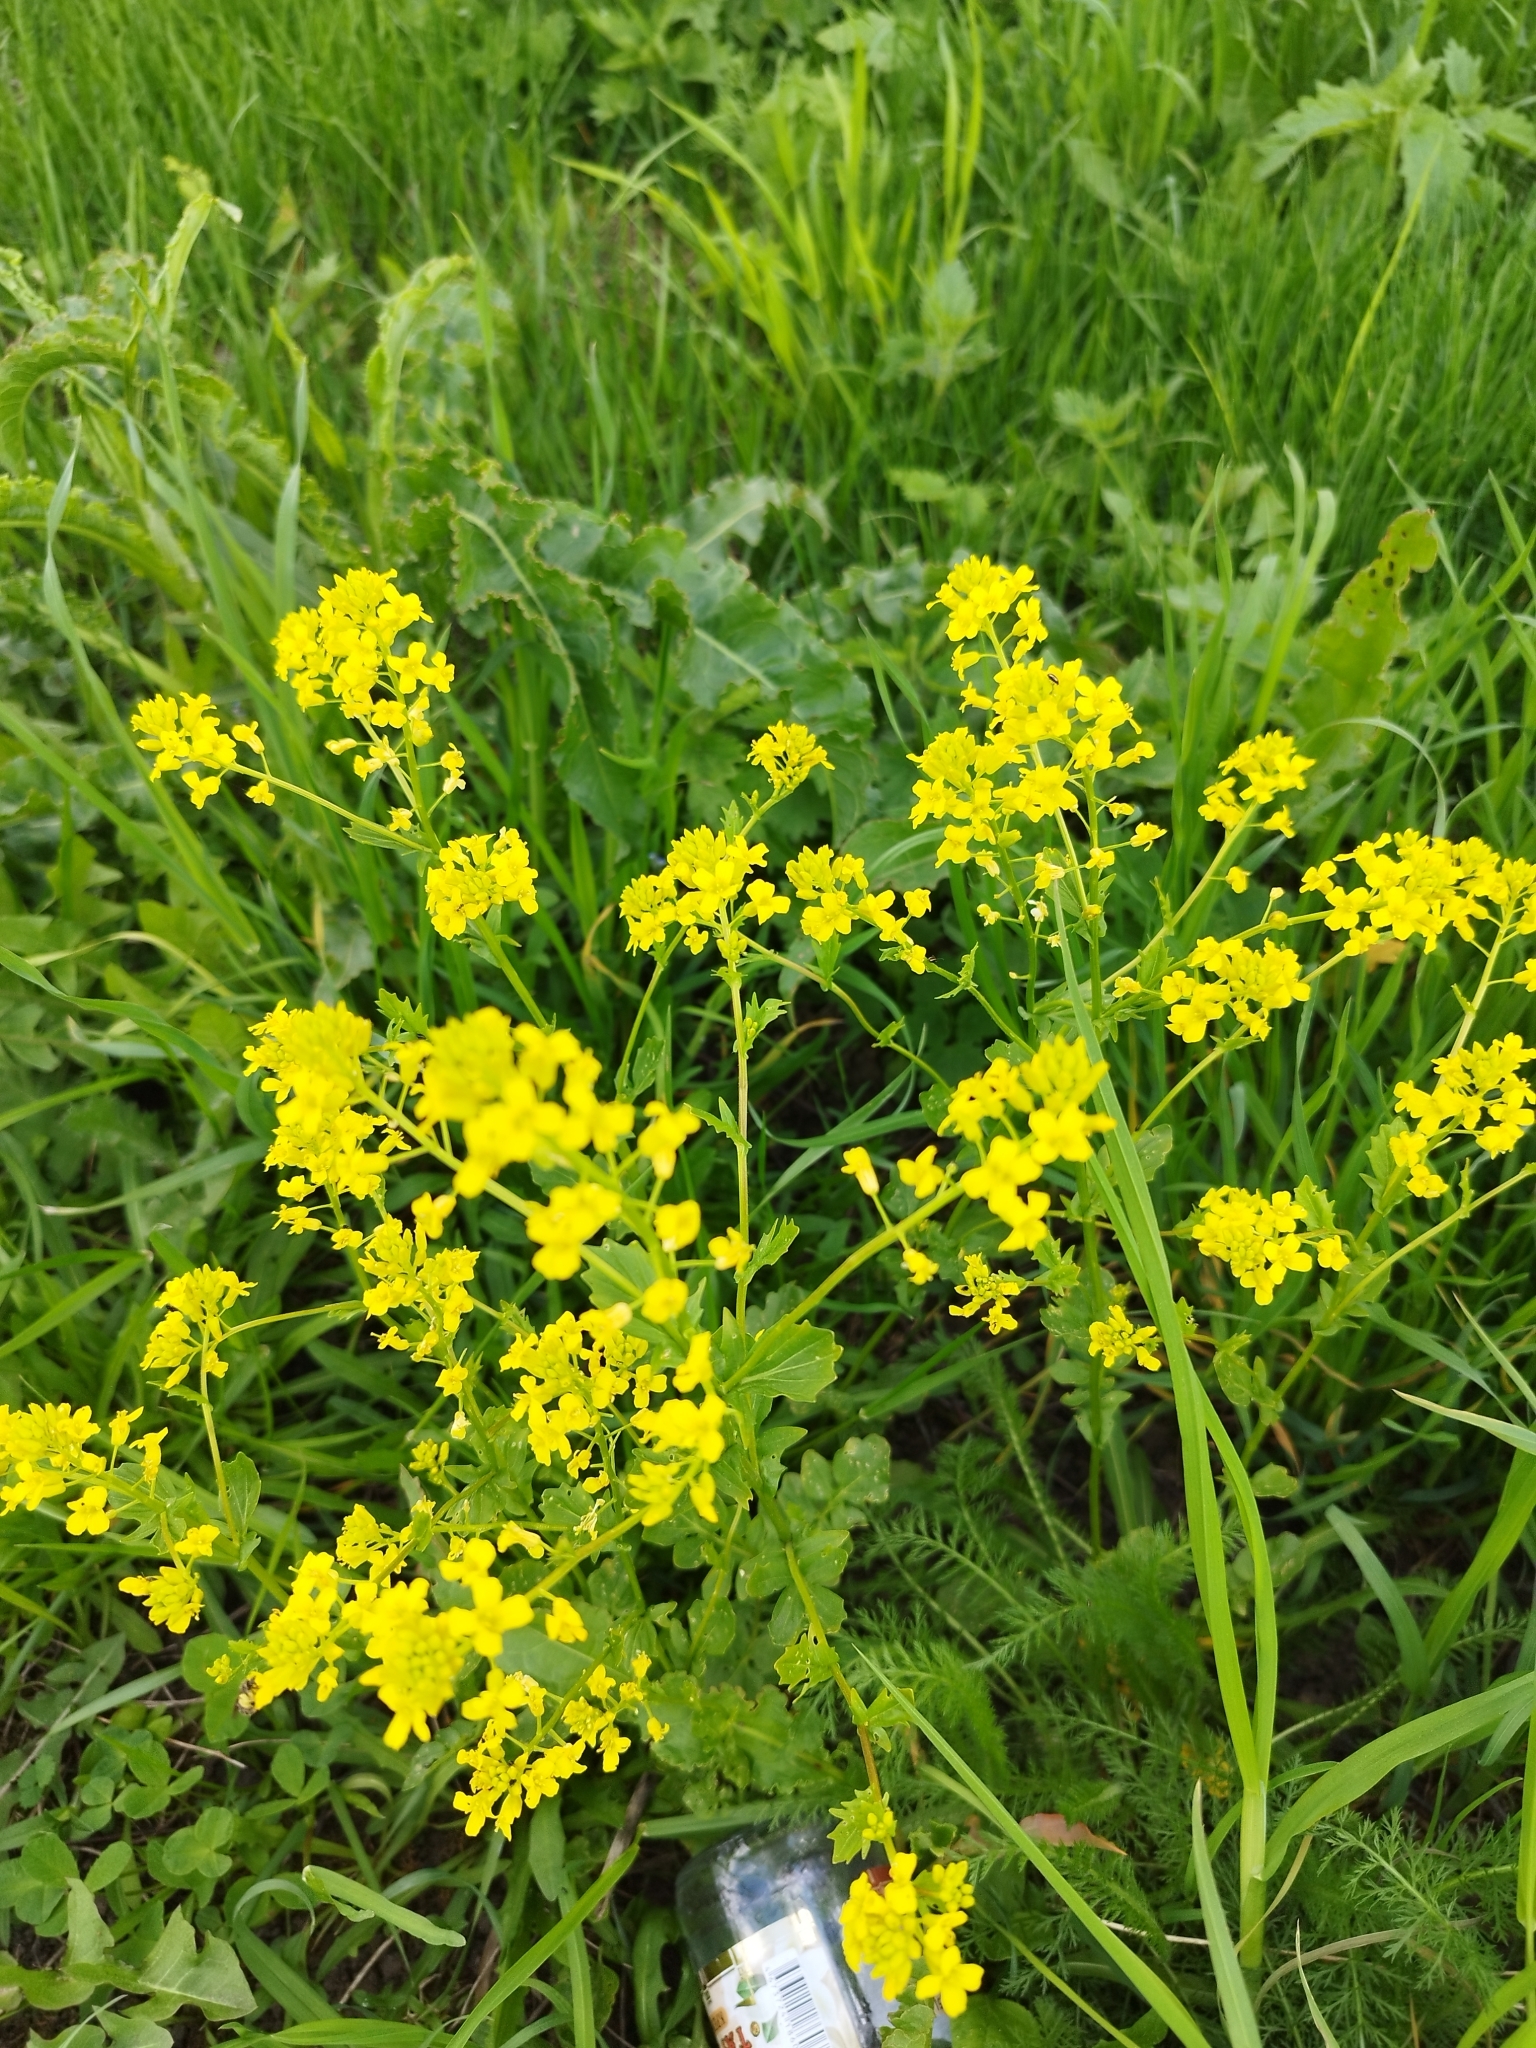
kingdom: Plantae
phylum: Tracheophyta
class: Magnoliopsida
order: Brassicales
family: Brassicaceae
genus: Barbarea
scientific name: Barbarea vulgaris
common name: Cressy-greens
